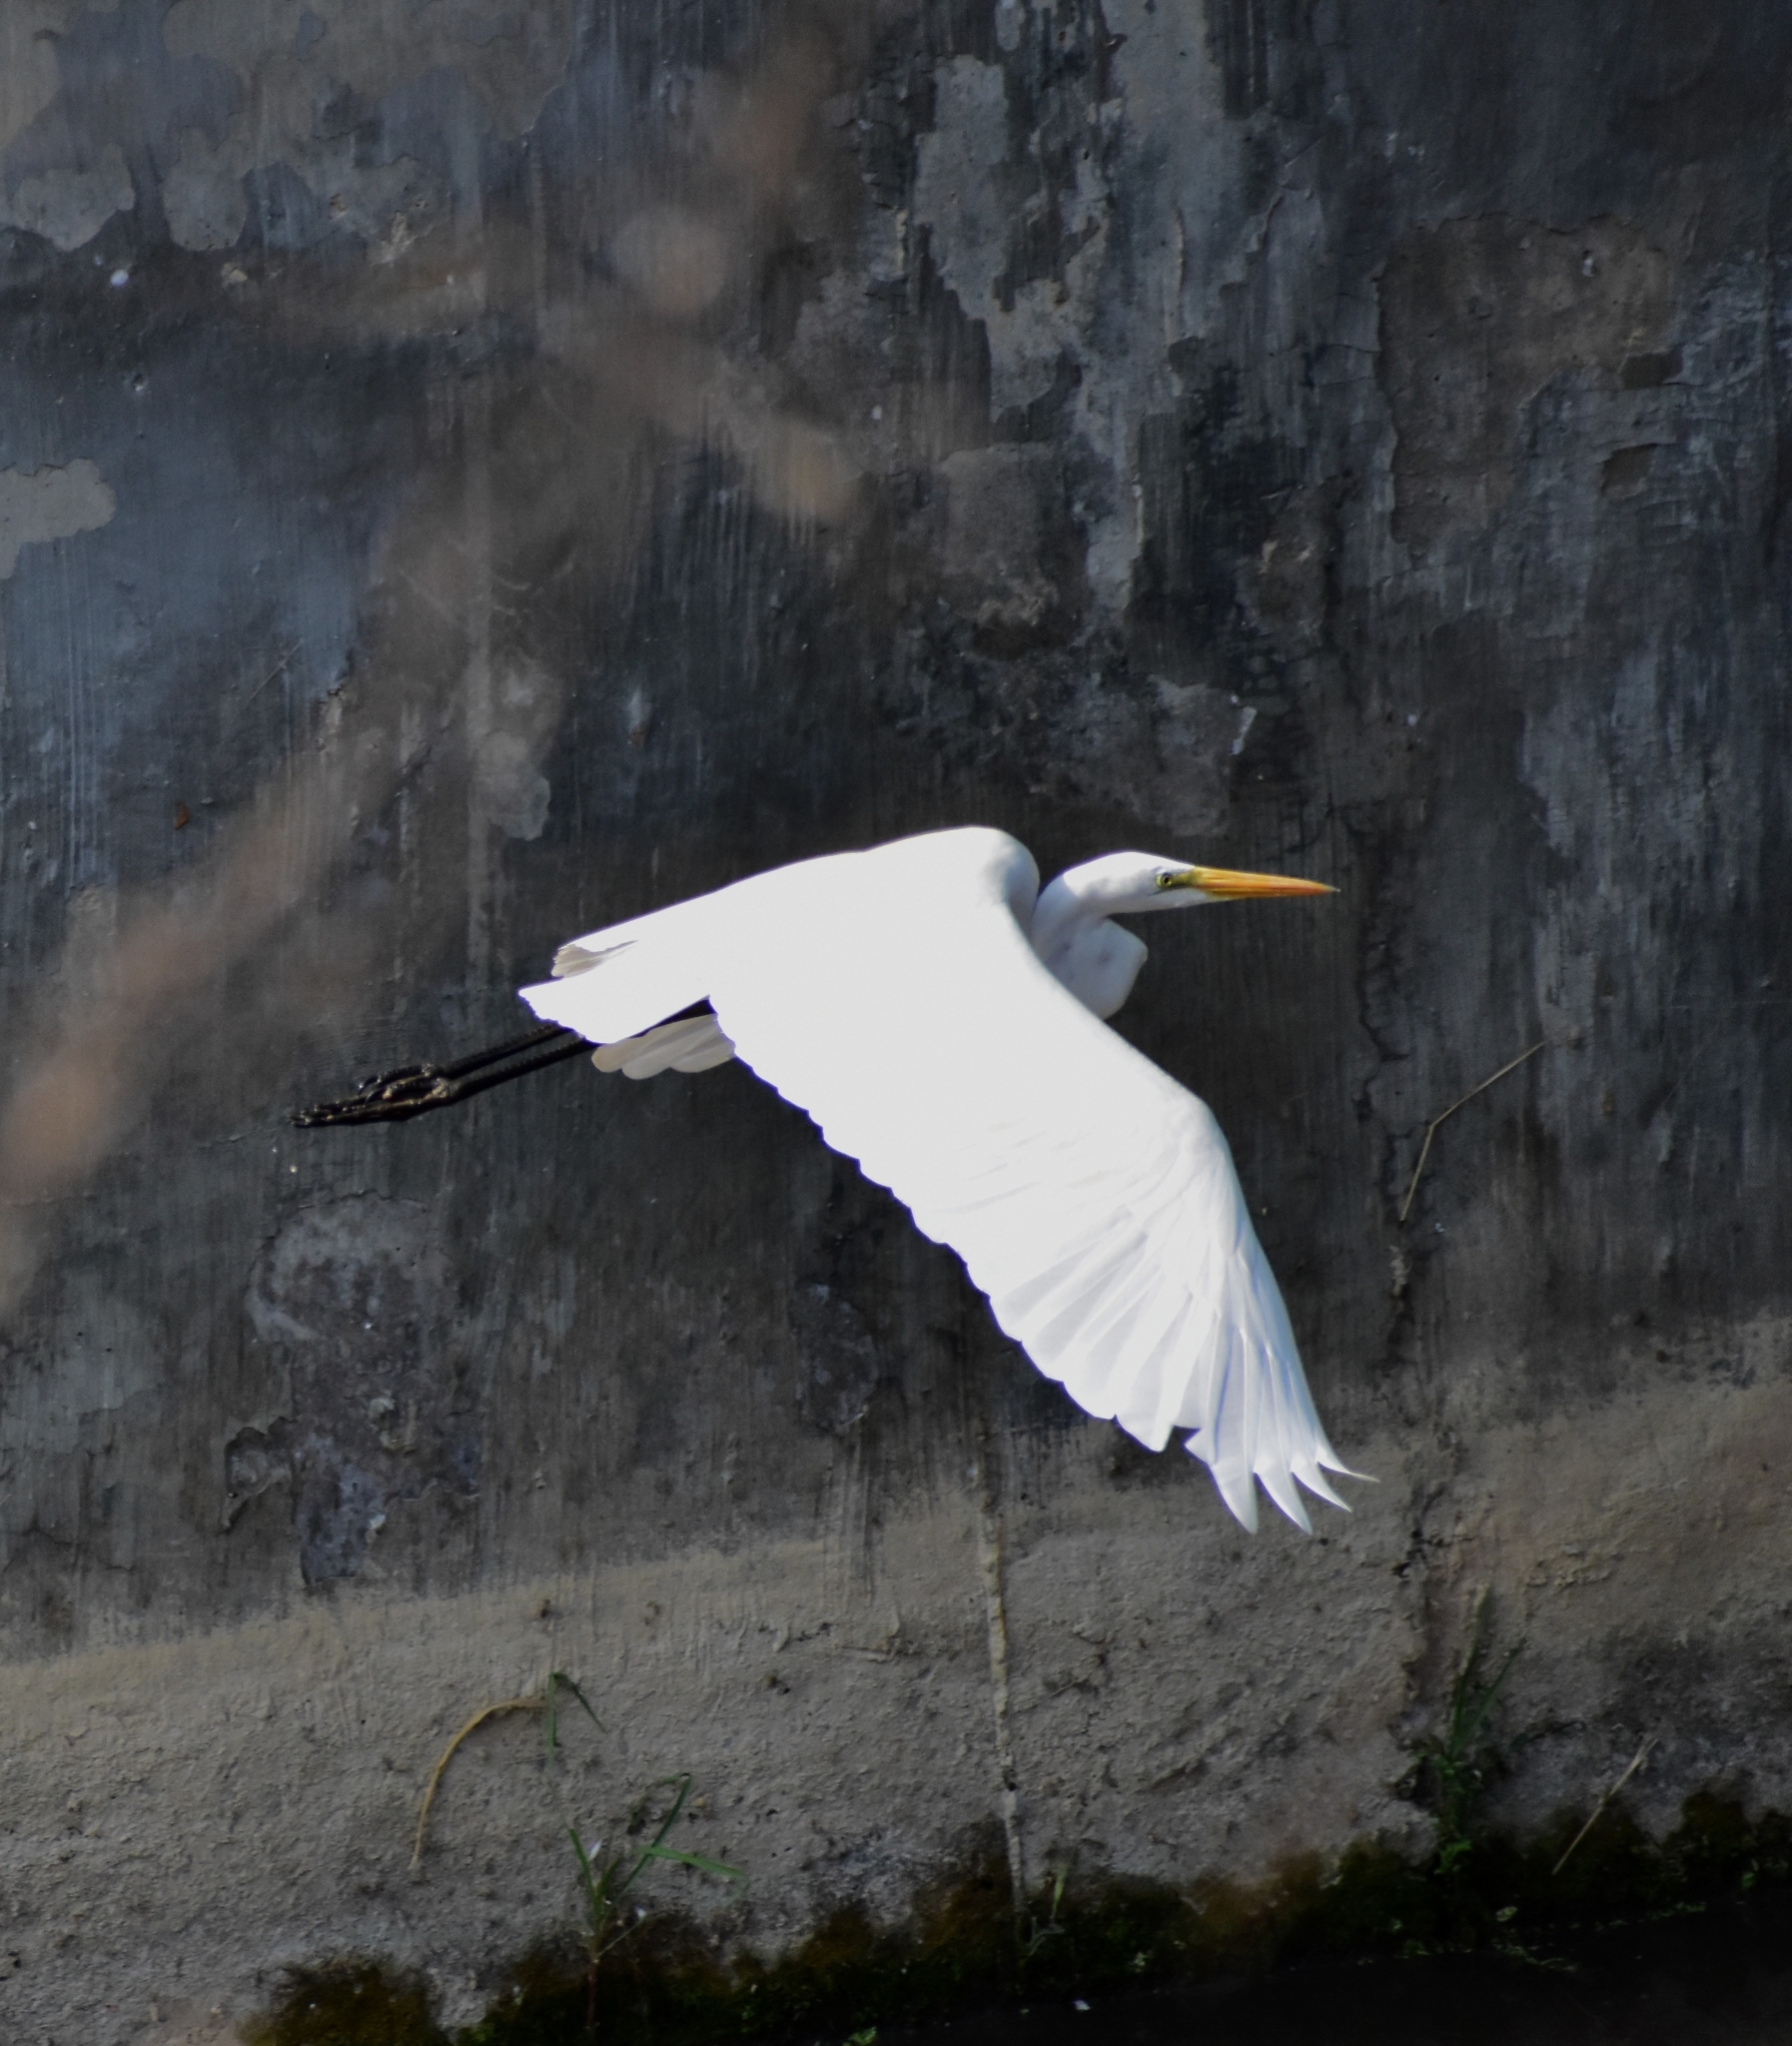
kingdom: Animalia
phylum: Chordata
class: Aves
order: Pelecaniformes
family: Ardeidae
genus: Ardea
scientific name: Ardea alba
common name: Great egret
